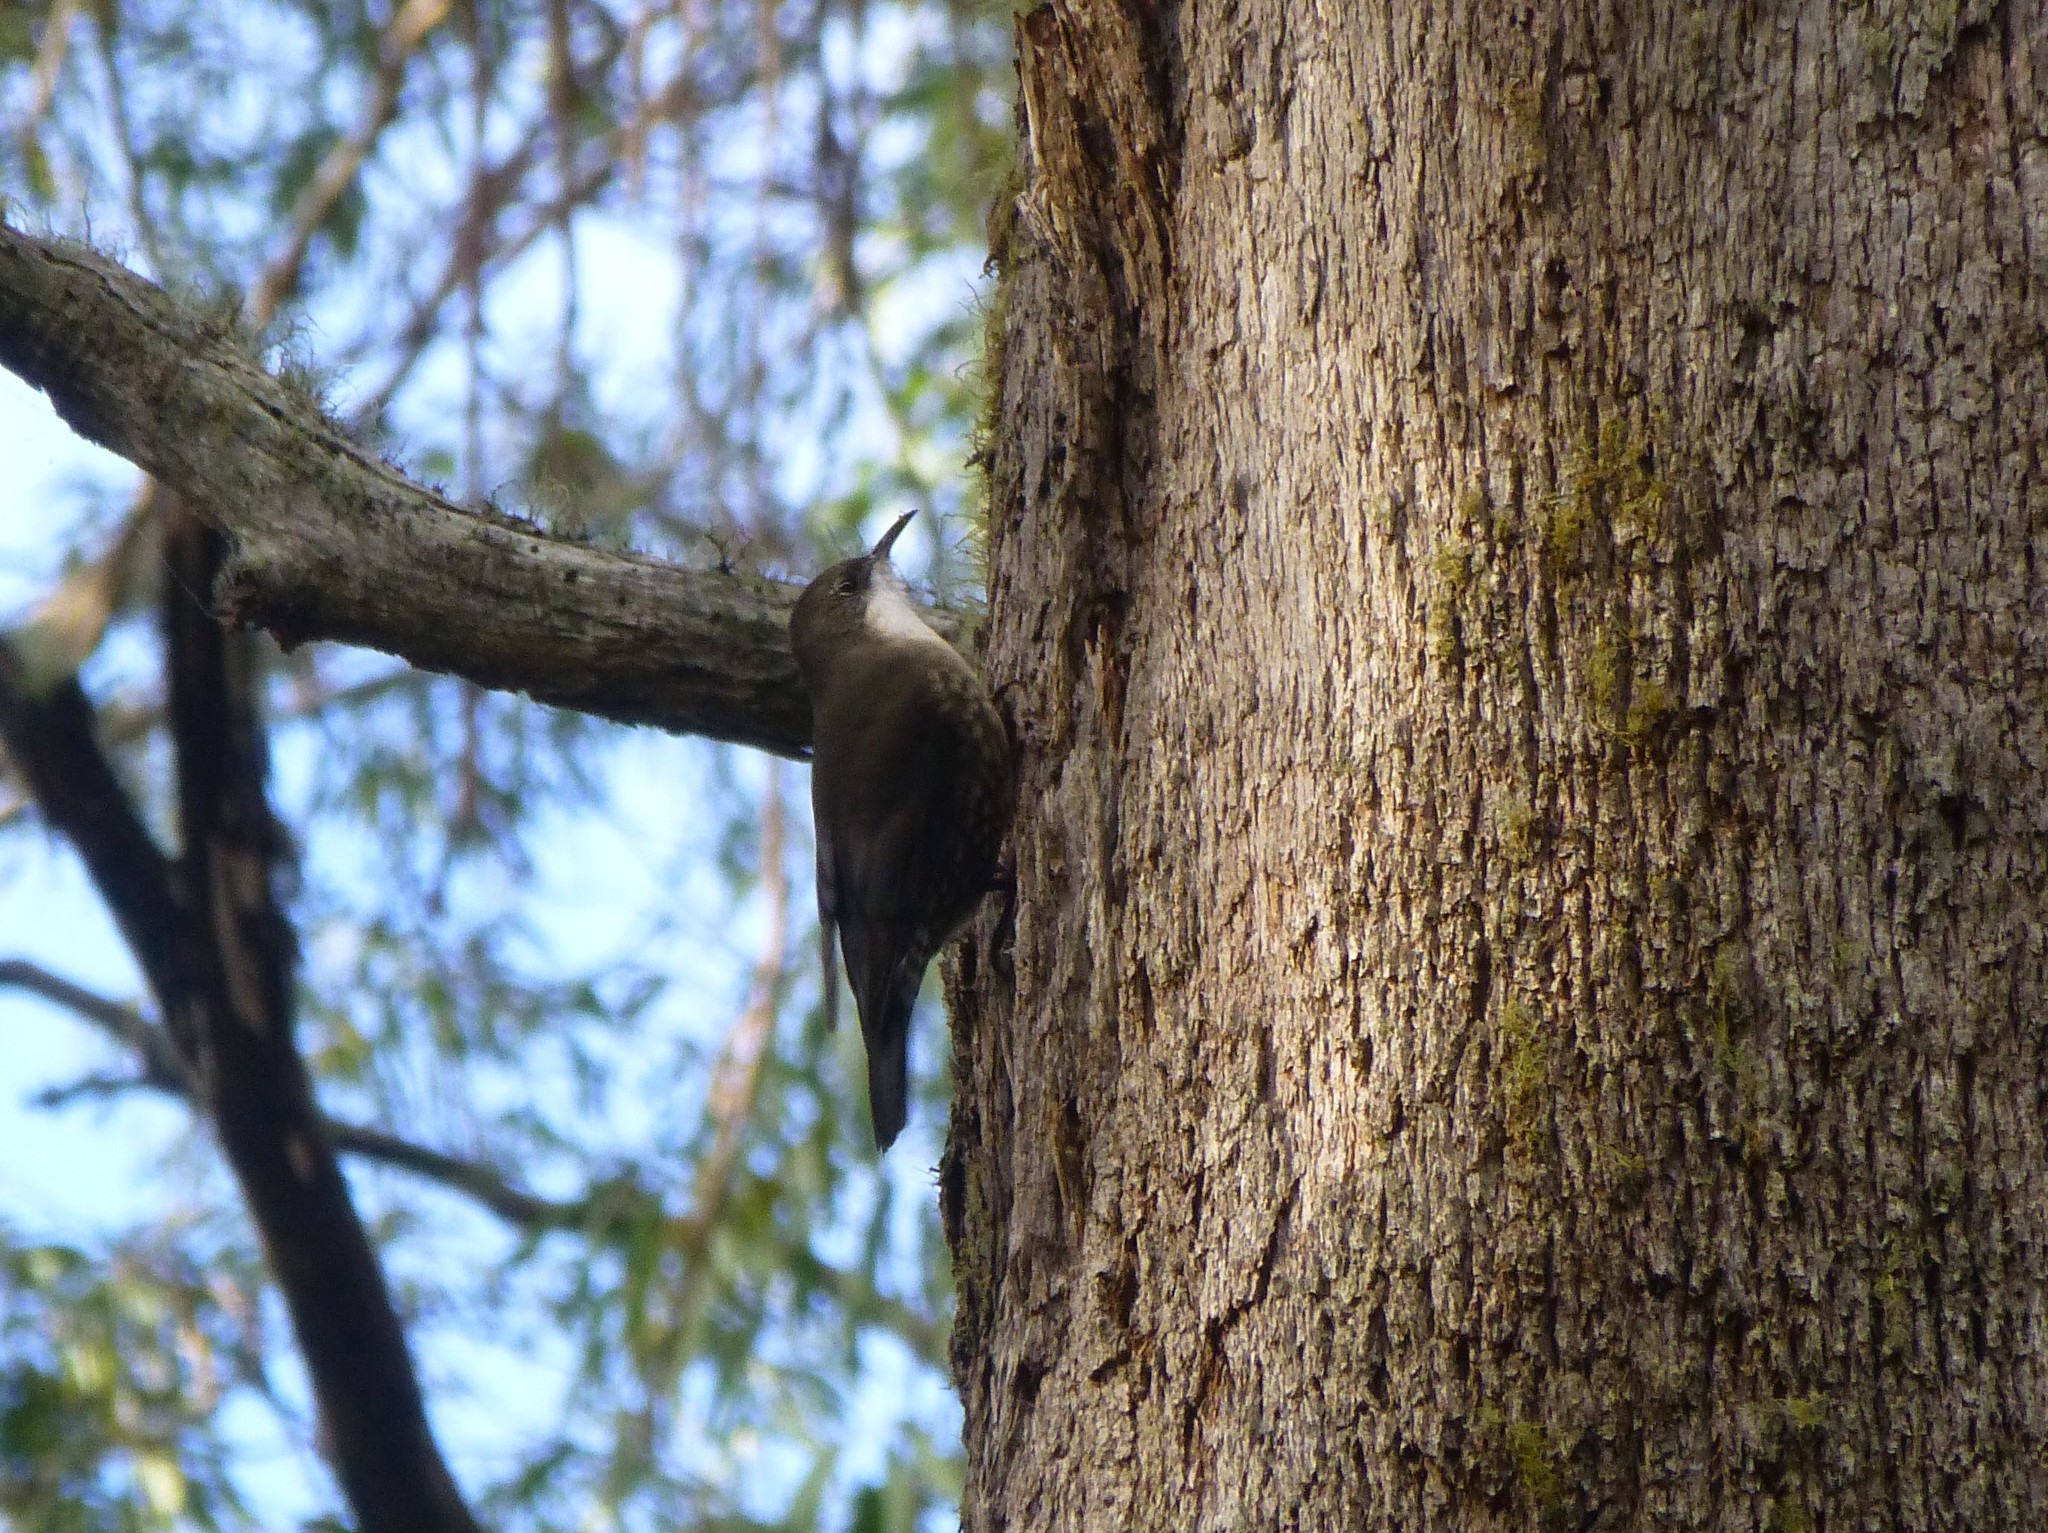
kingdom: Animalia
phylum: Chordata
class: Aves
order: Passeriformes
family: Climacteridae
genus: Cormobates
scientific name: Cormobates leucophaea
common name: White-throated treecreeper
